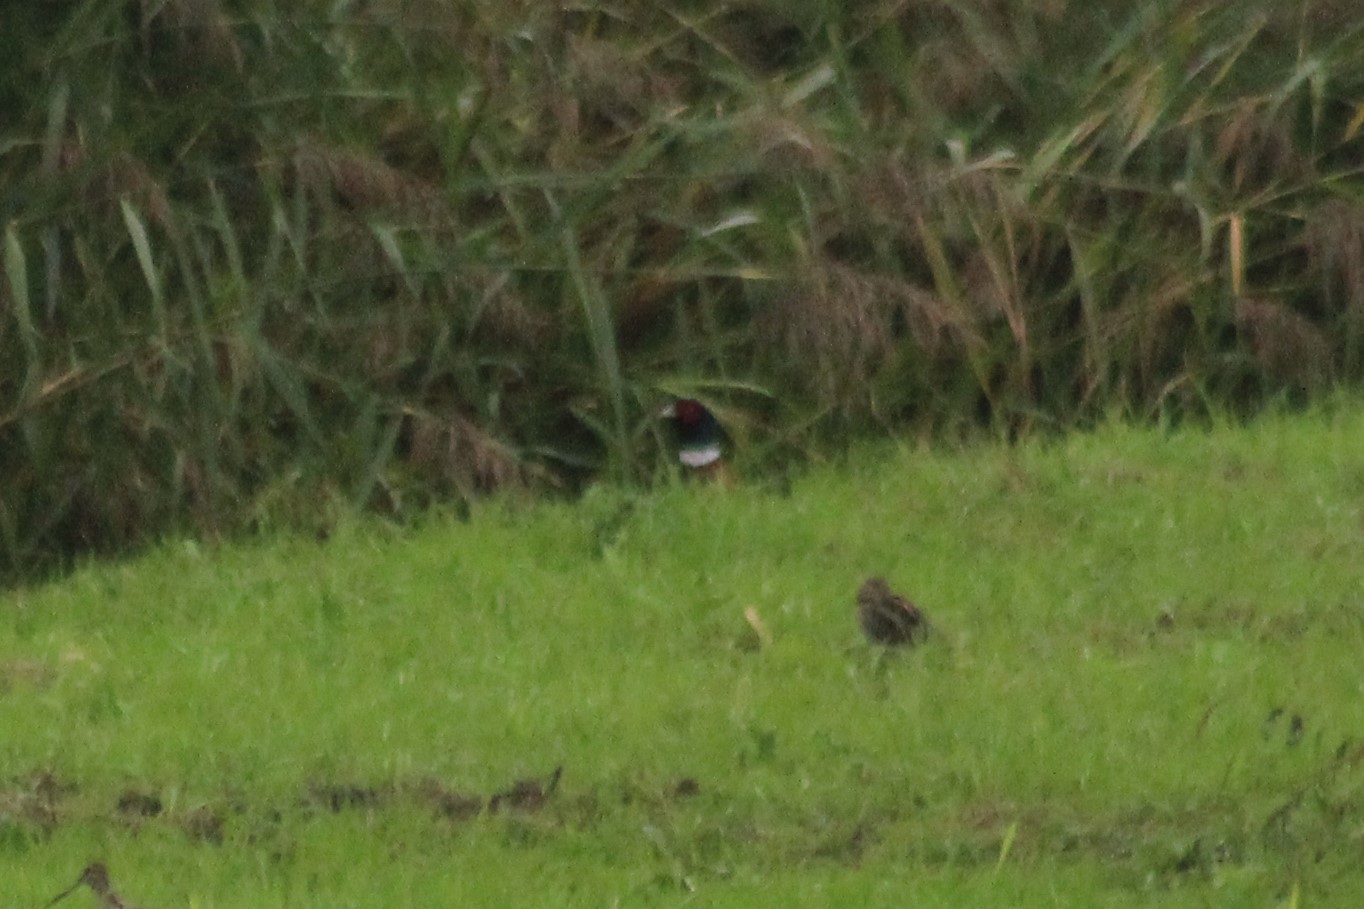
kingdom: Animalia
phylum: Chordata
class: Aves
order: Galliformes
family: Phasianidae
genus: Phasianus
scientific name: Phasianus colchicus
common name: Common pheasant
